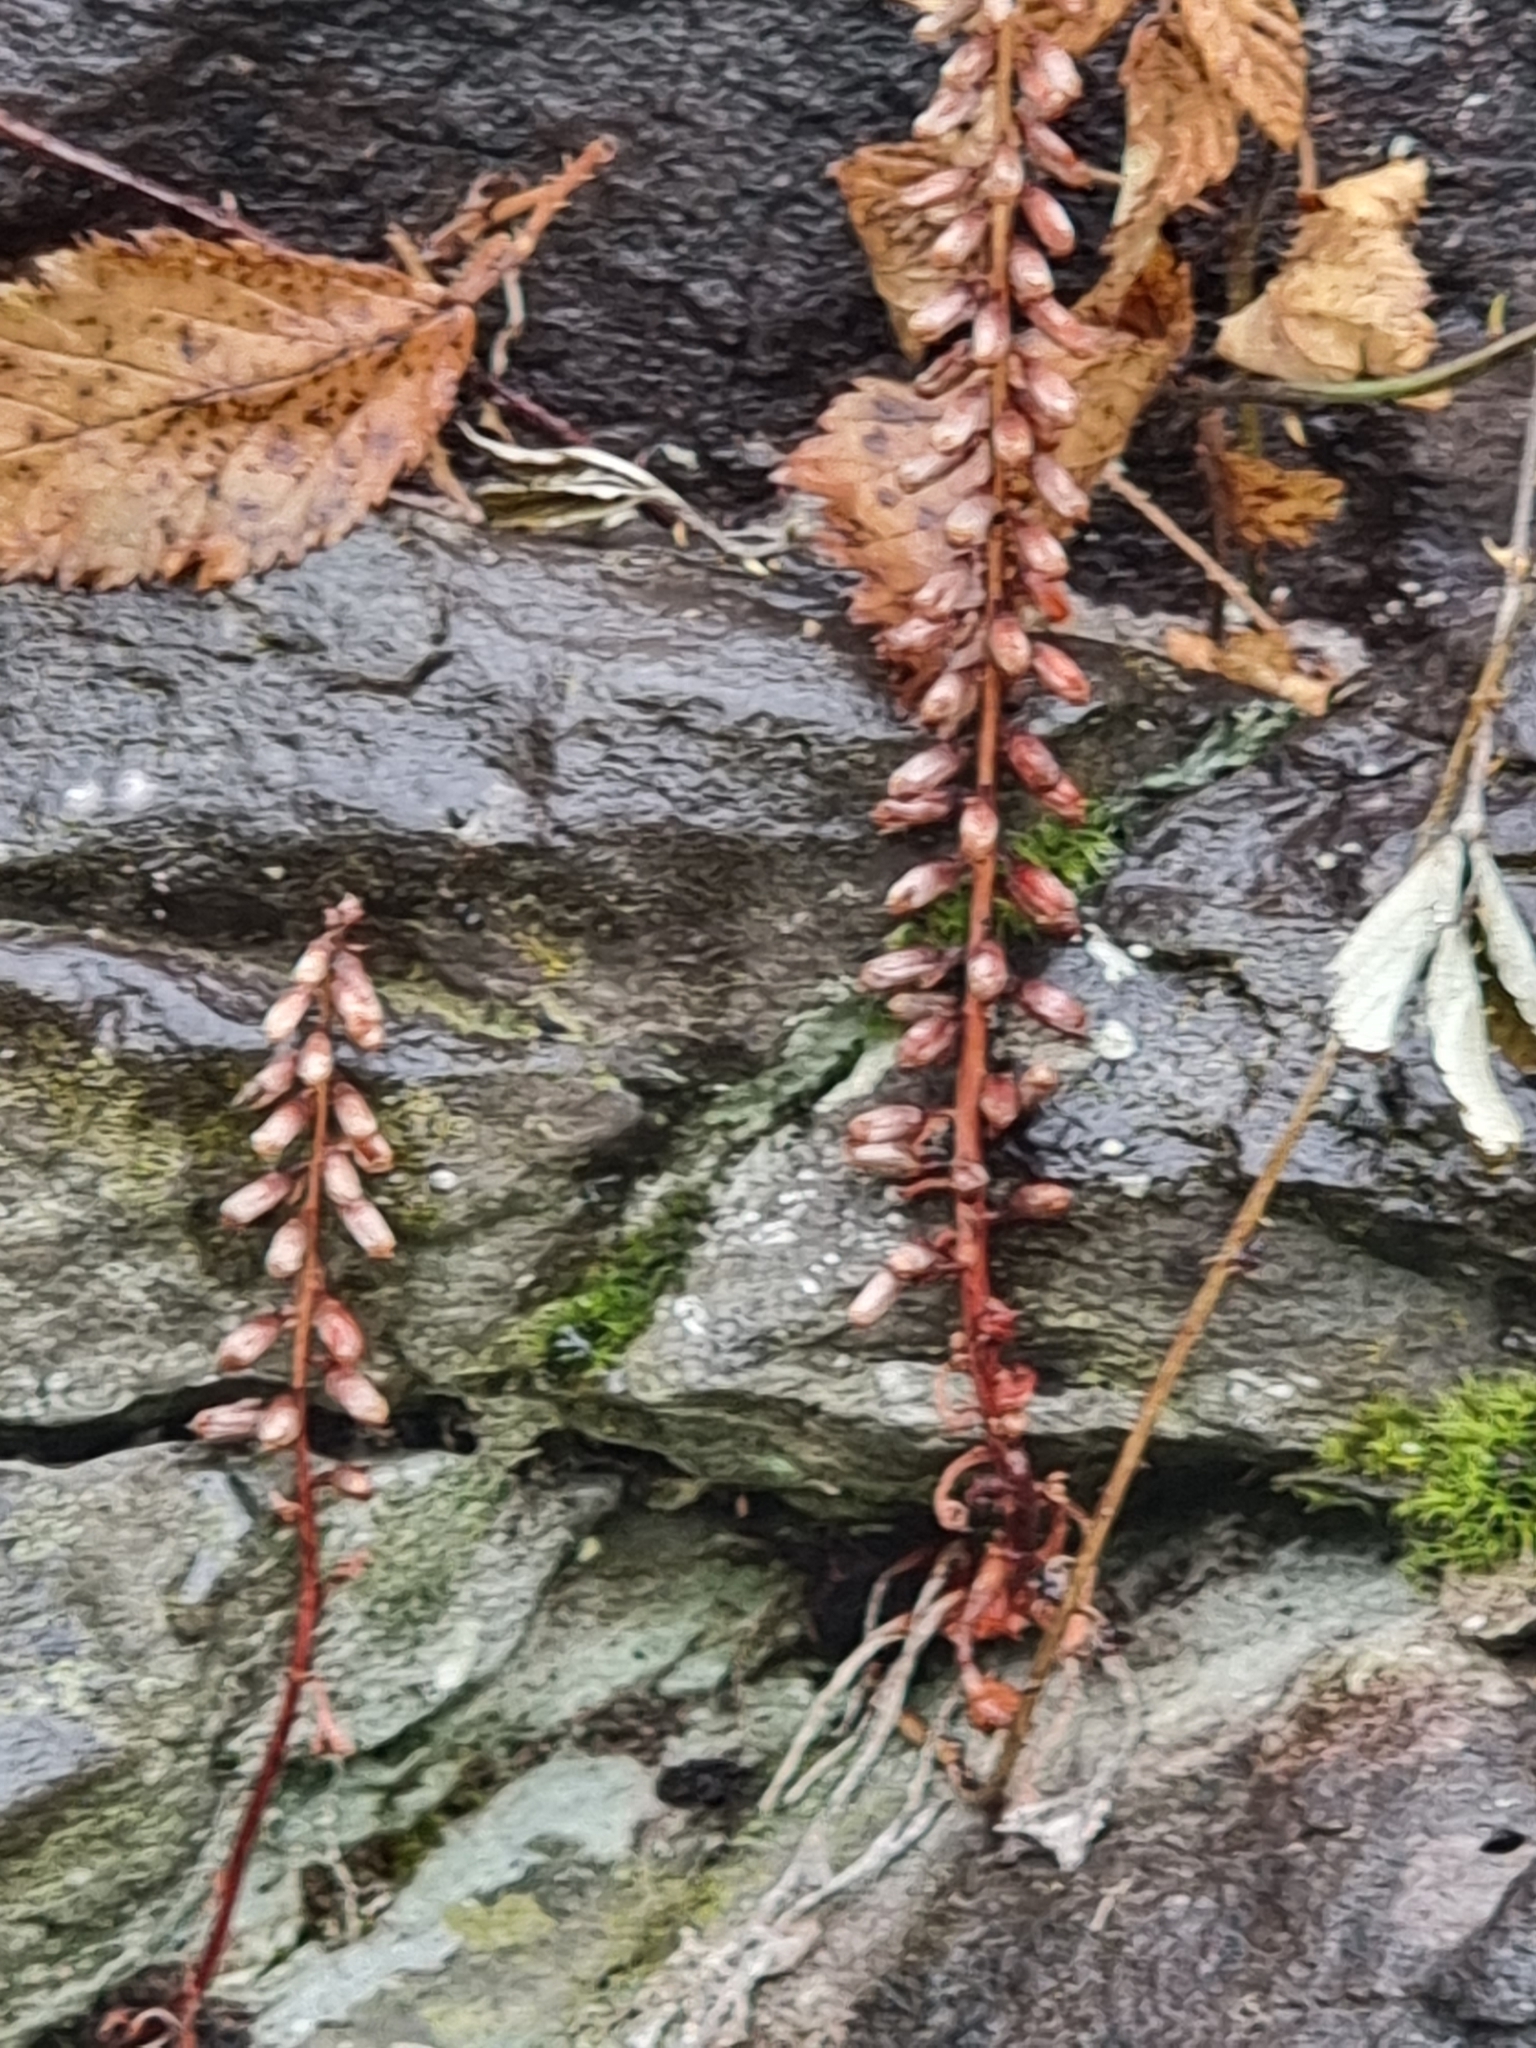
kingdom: Plantae
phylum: Tracheophyta
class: Magnoliopsida
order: Saxifragales
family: Crassulaceae
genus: Umbilicus
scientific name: Umbilicus rupestris
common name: Navelwort
